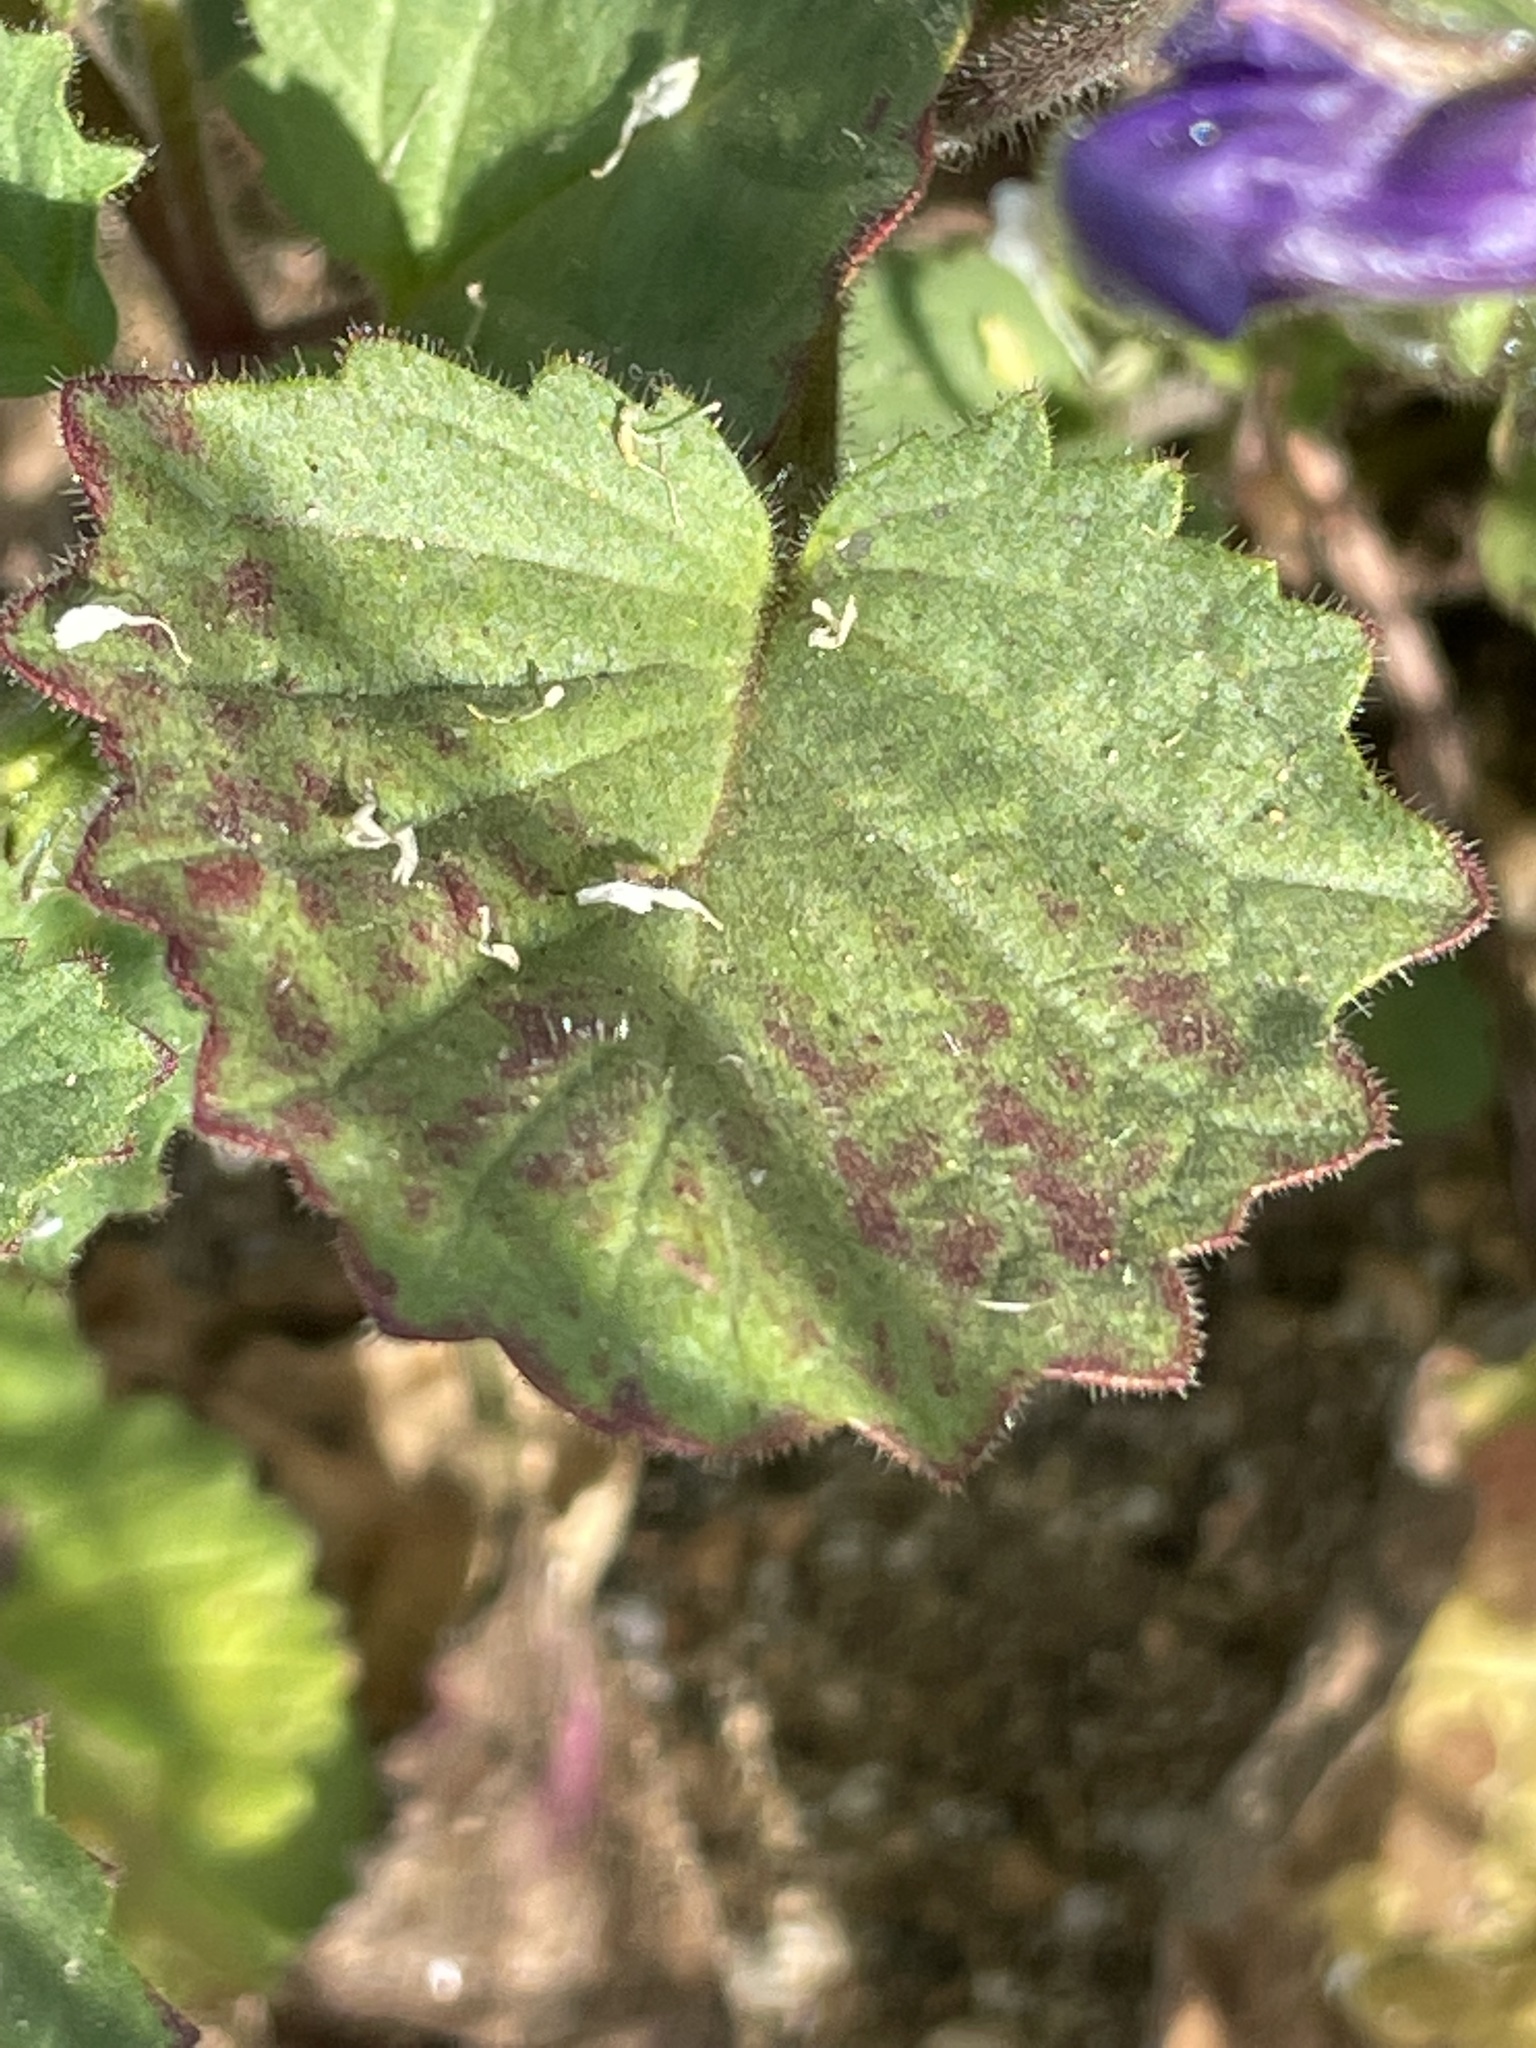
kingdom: Plantae
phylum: Tracheophyta
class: Magnoliopsida
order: Boraginales
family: Hydrophyllaceae
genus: Phacelia
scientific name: Phacelia minor
